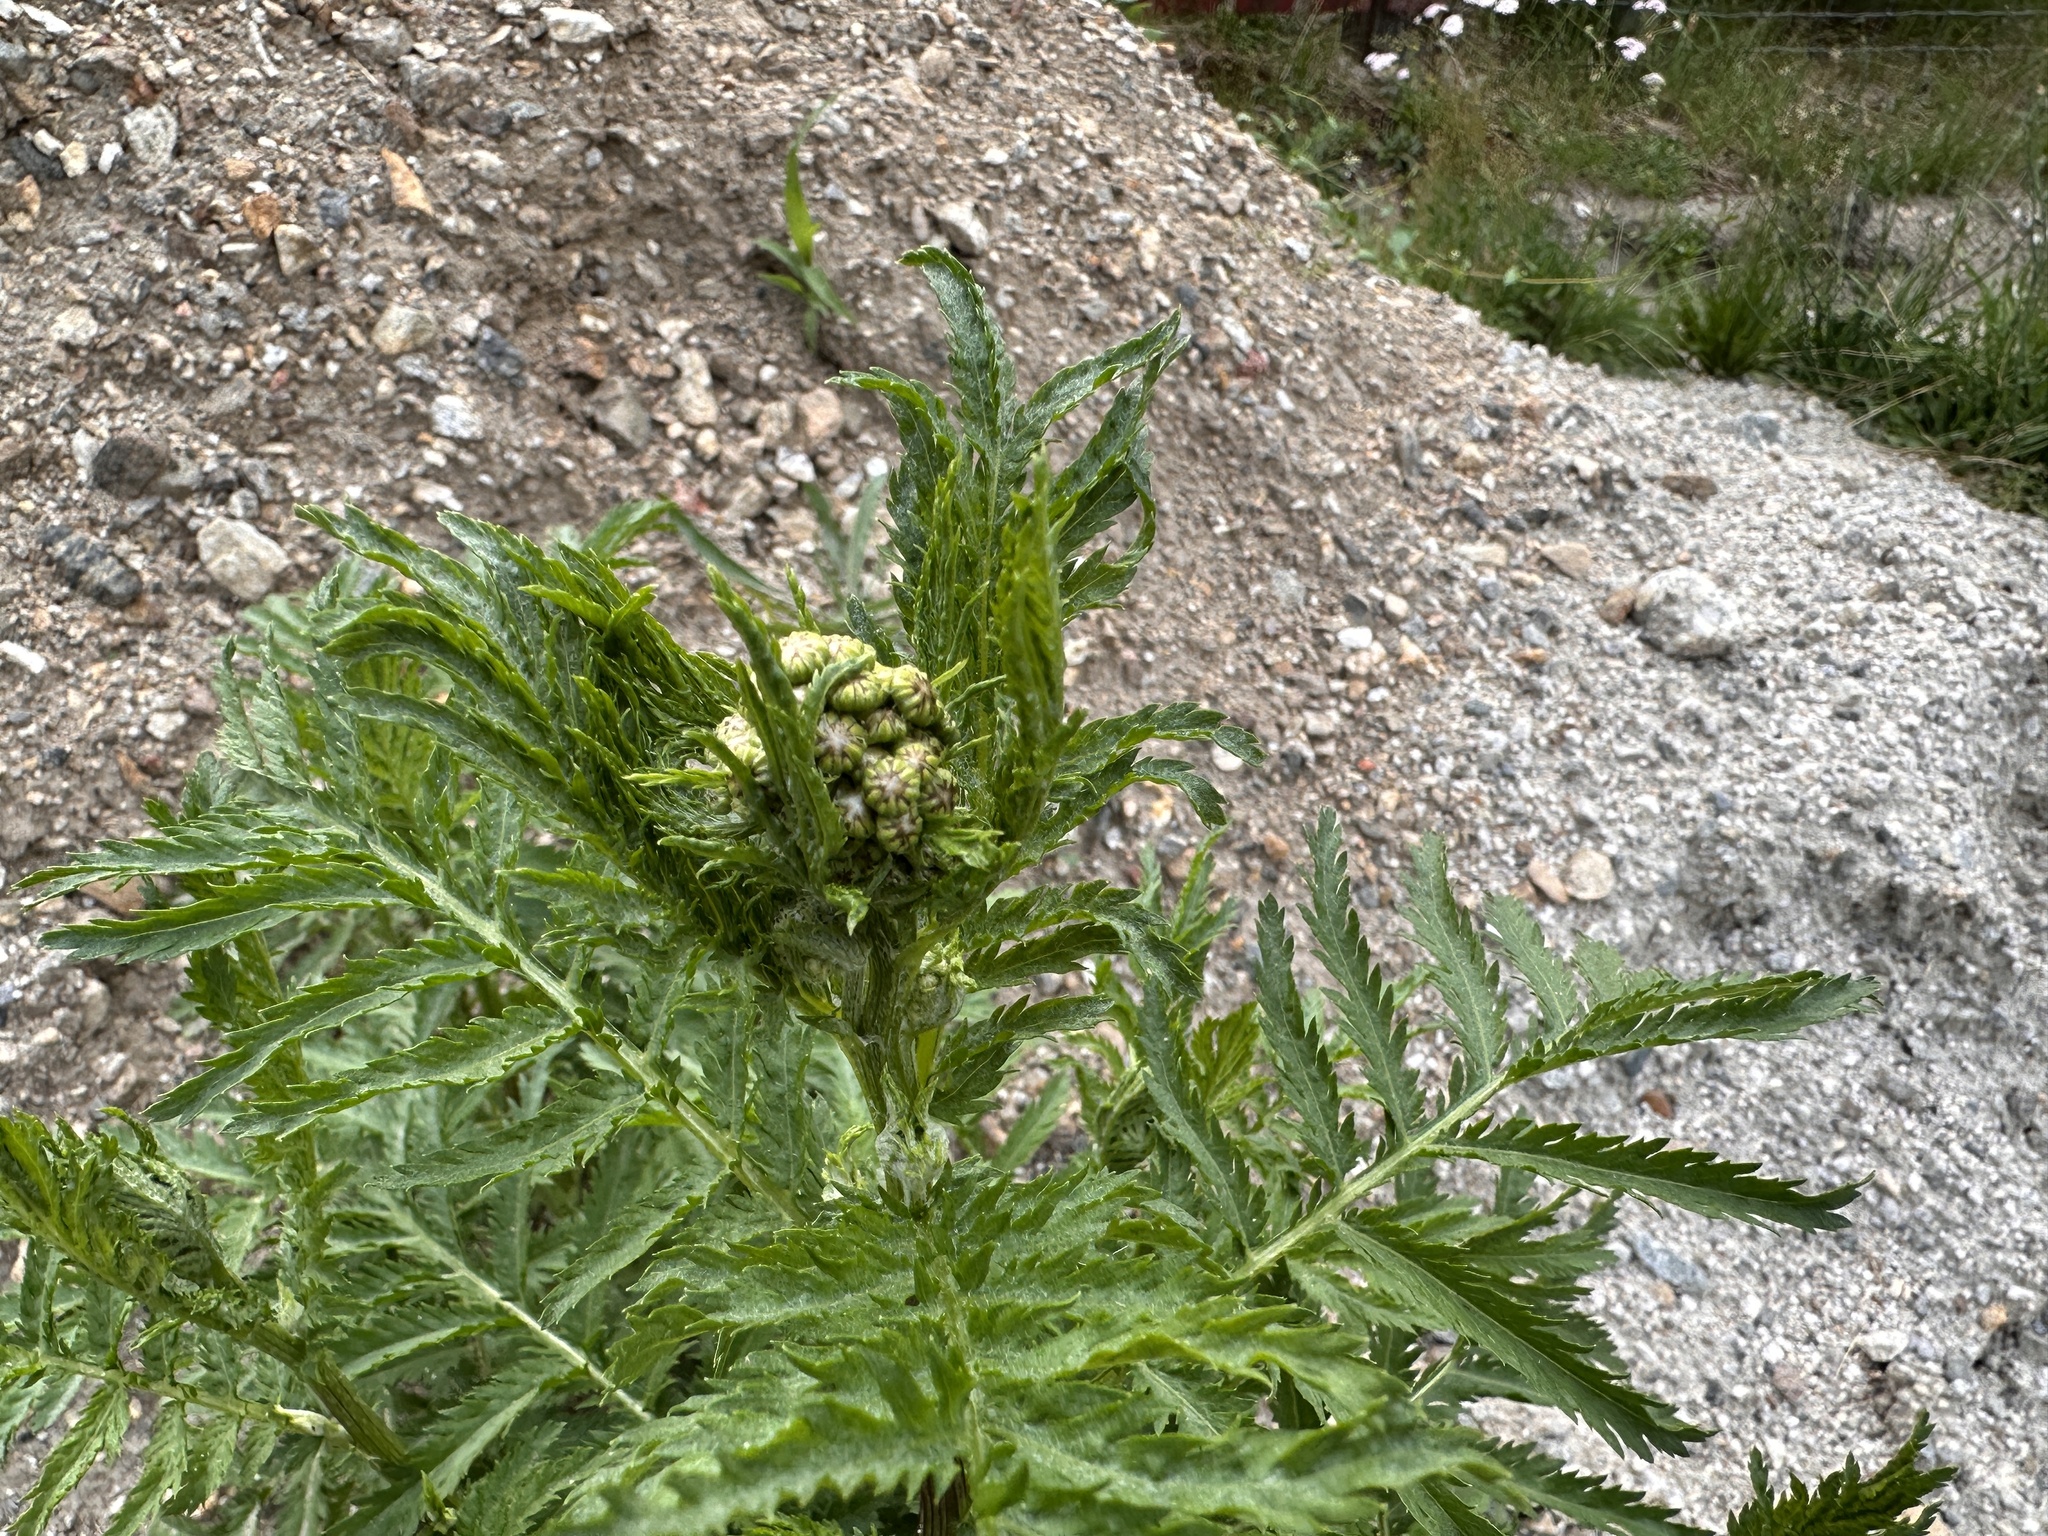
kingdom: Plantae
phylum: Tracheophyta
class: Magnoliopsida
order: Asterales
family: Asteraceae
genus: Tanacetum
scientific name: Tanacetum vulgare
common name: Common tansy
